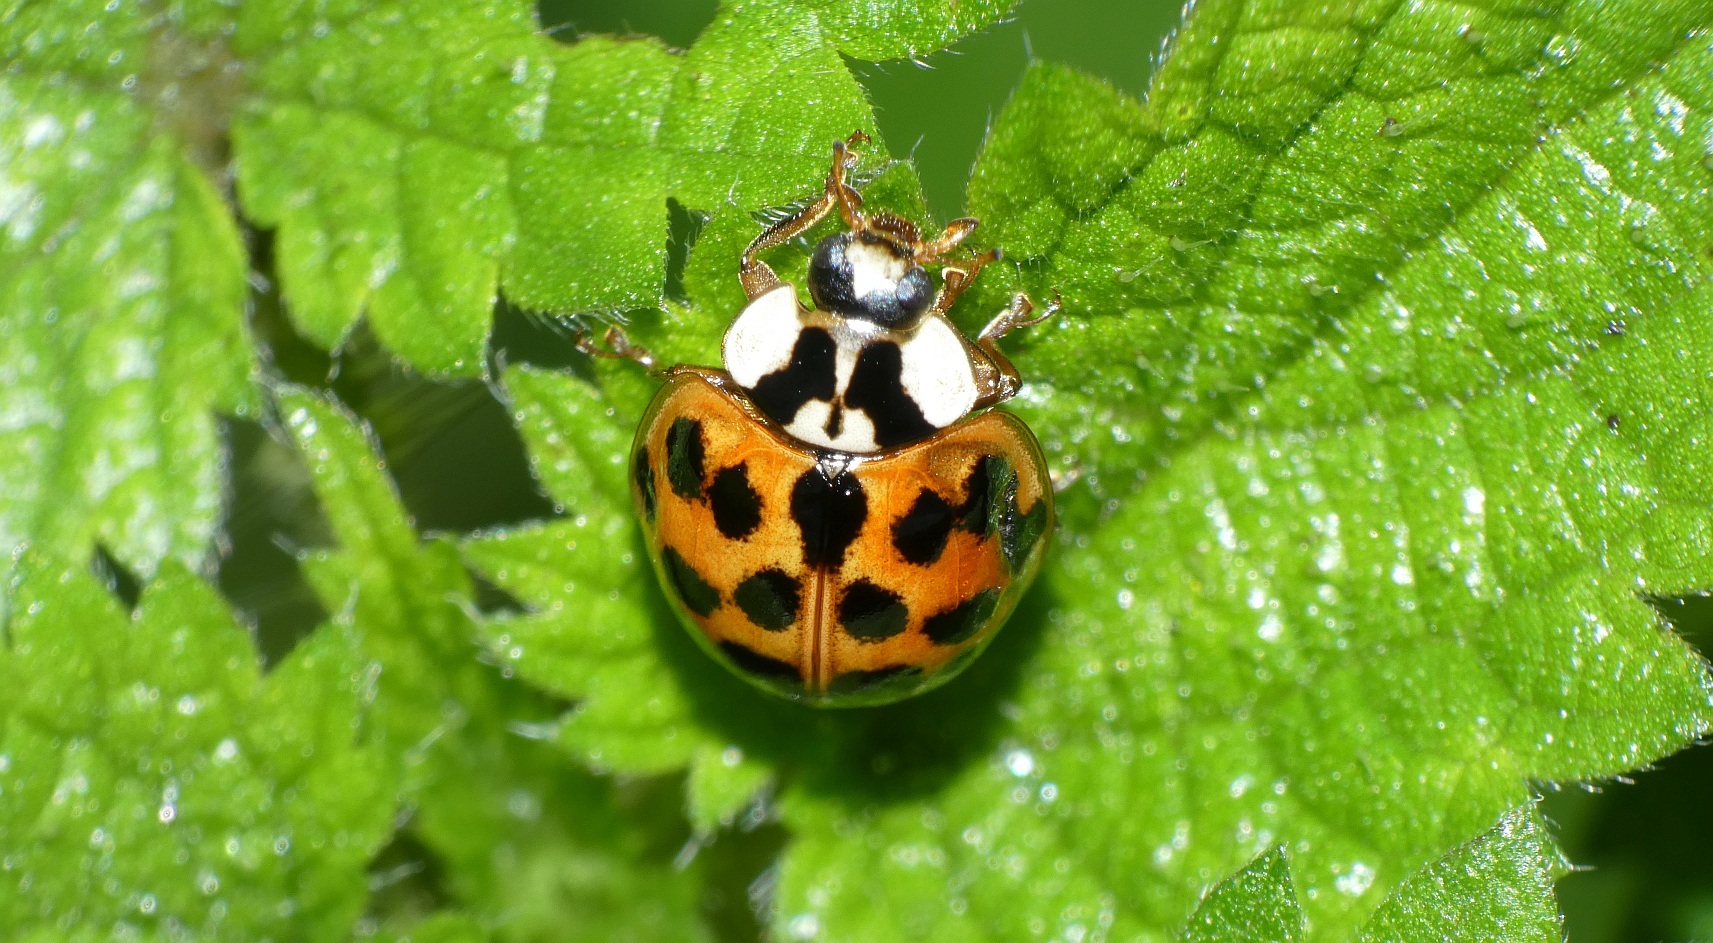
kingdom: Animalia
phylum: Arthropoda
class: Insecta
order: Coleoptera
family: Coccinellidae
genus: Harmonia
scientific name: Harmonia axyridis
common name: Harlequin ladybird
